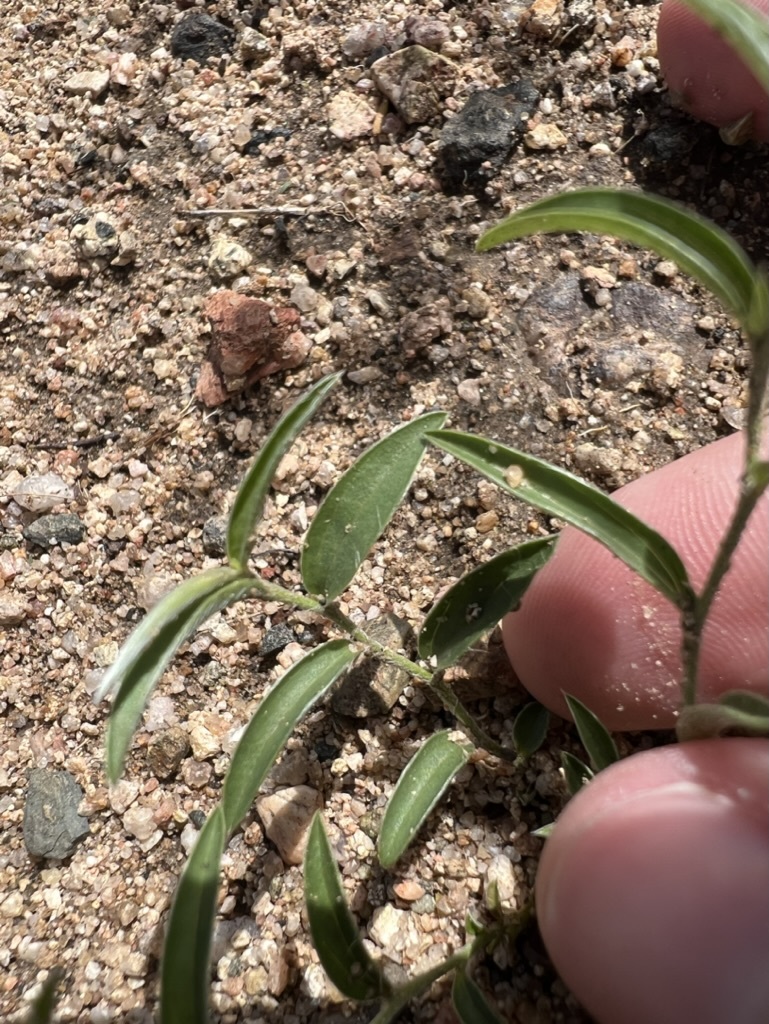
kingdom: Plantae
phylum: Tracheophyta
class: Magnoliopsida
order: Solanales
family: Convolvulaceae
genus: Evolvulus
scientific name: Evolvulus sericeus
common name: Blue dots
